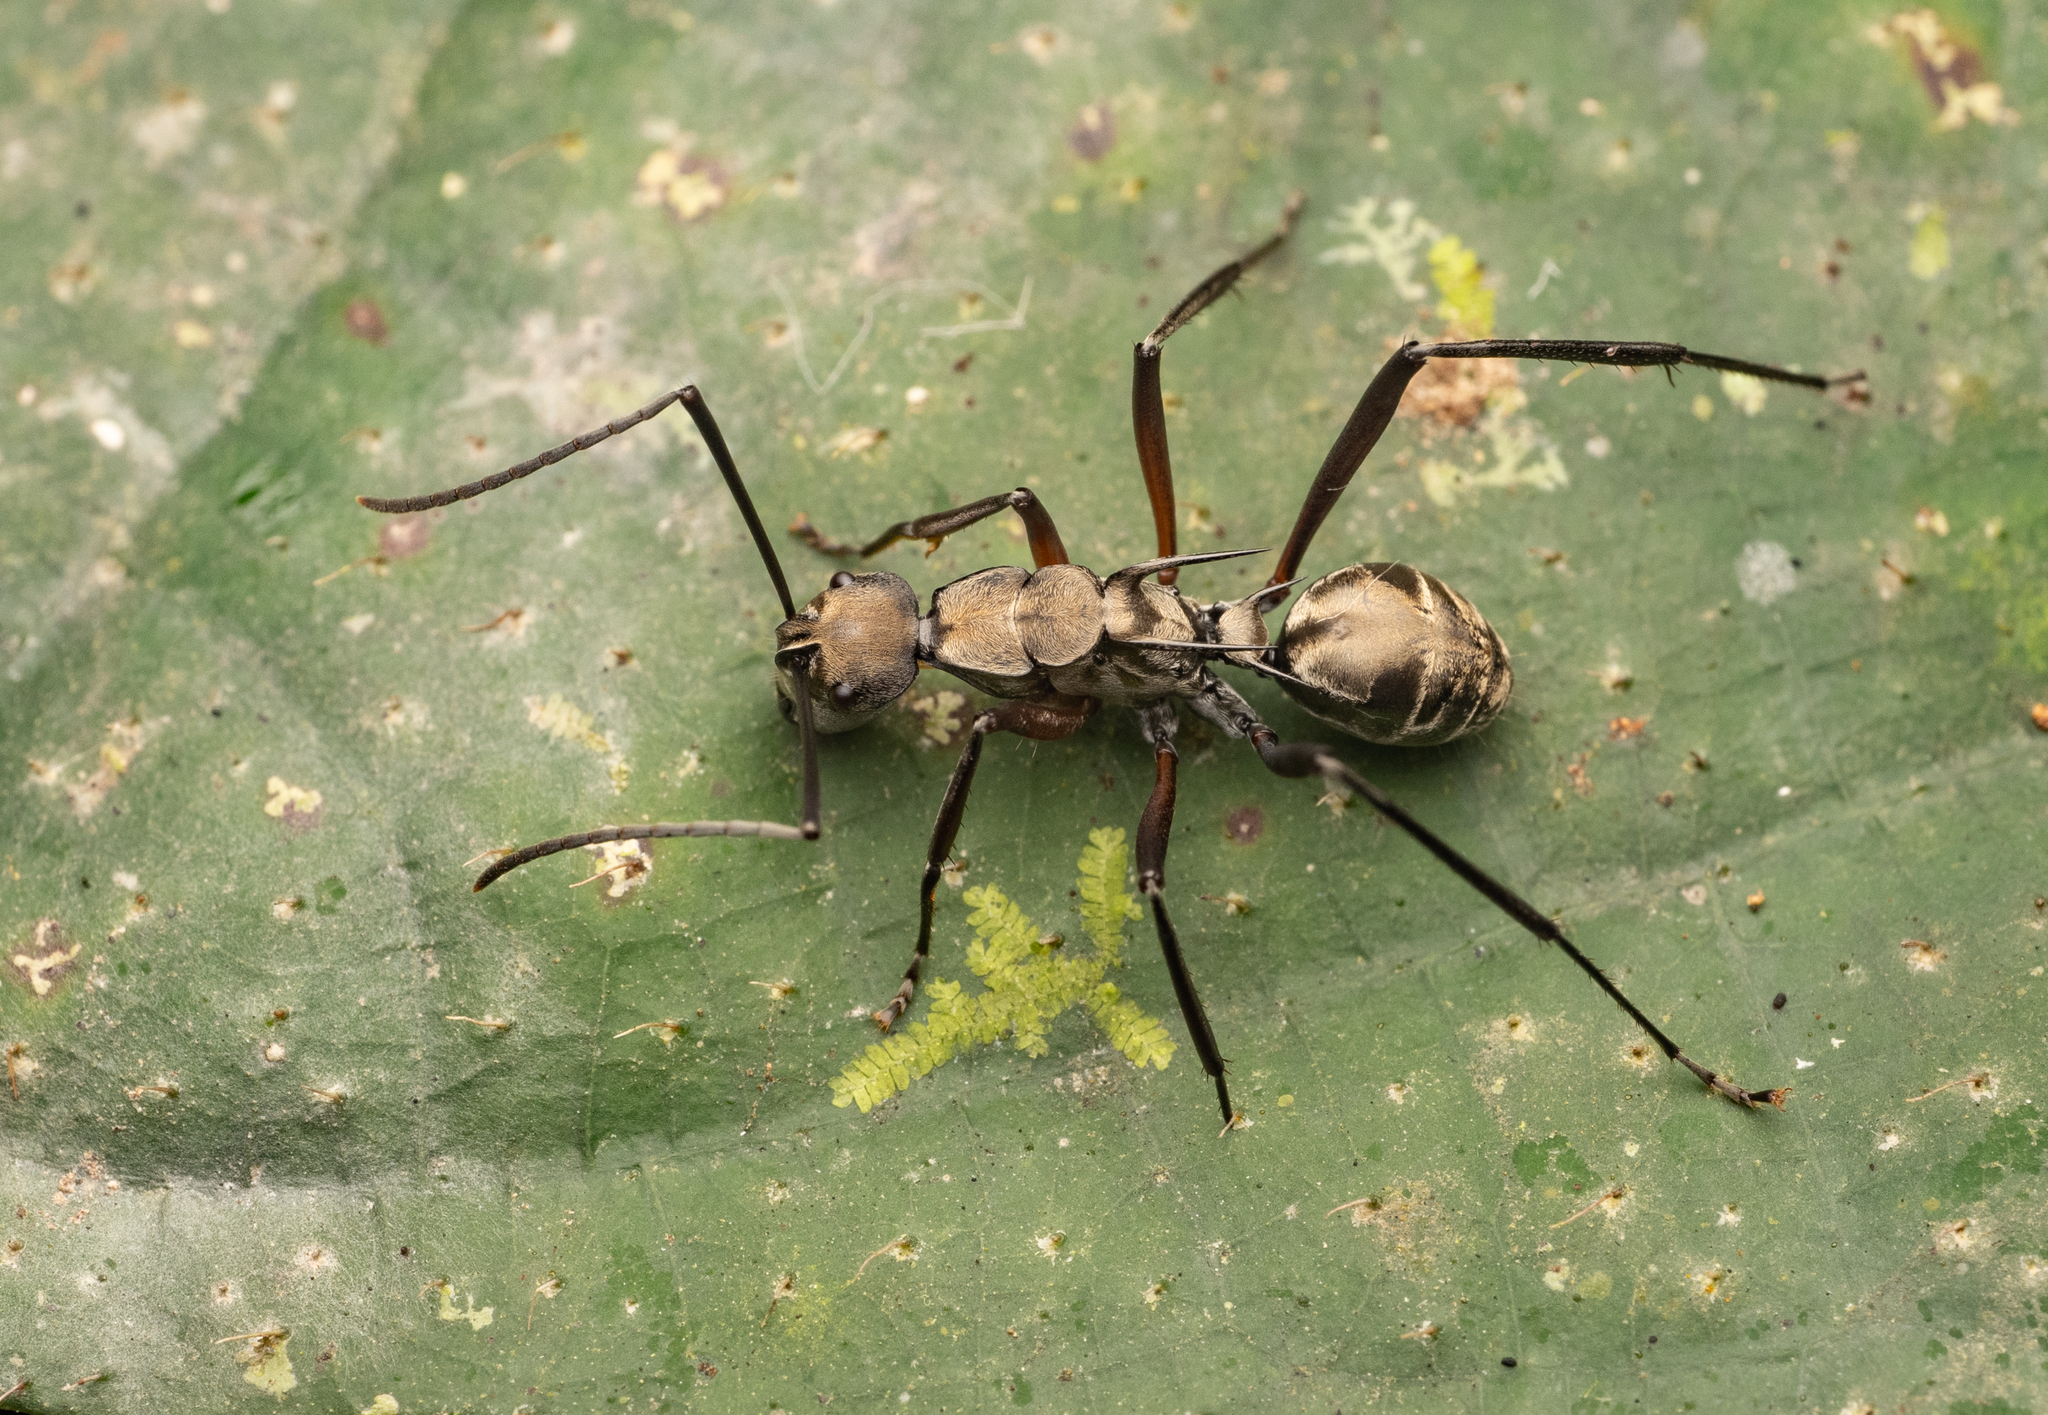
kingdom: Animalia
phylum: Arthropoda
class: Insecta
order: Hymenoptera
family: Formicidae
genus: Polyrhachis
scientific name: Polyrhachis metella
